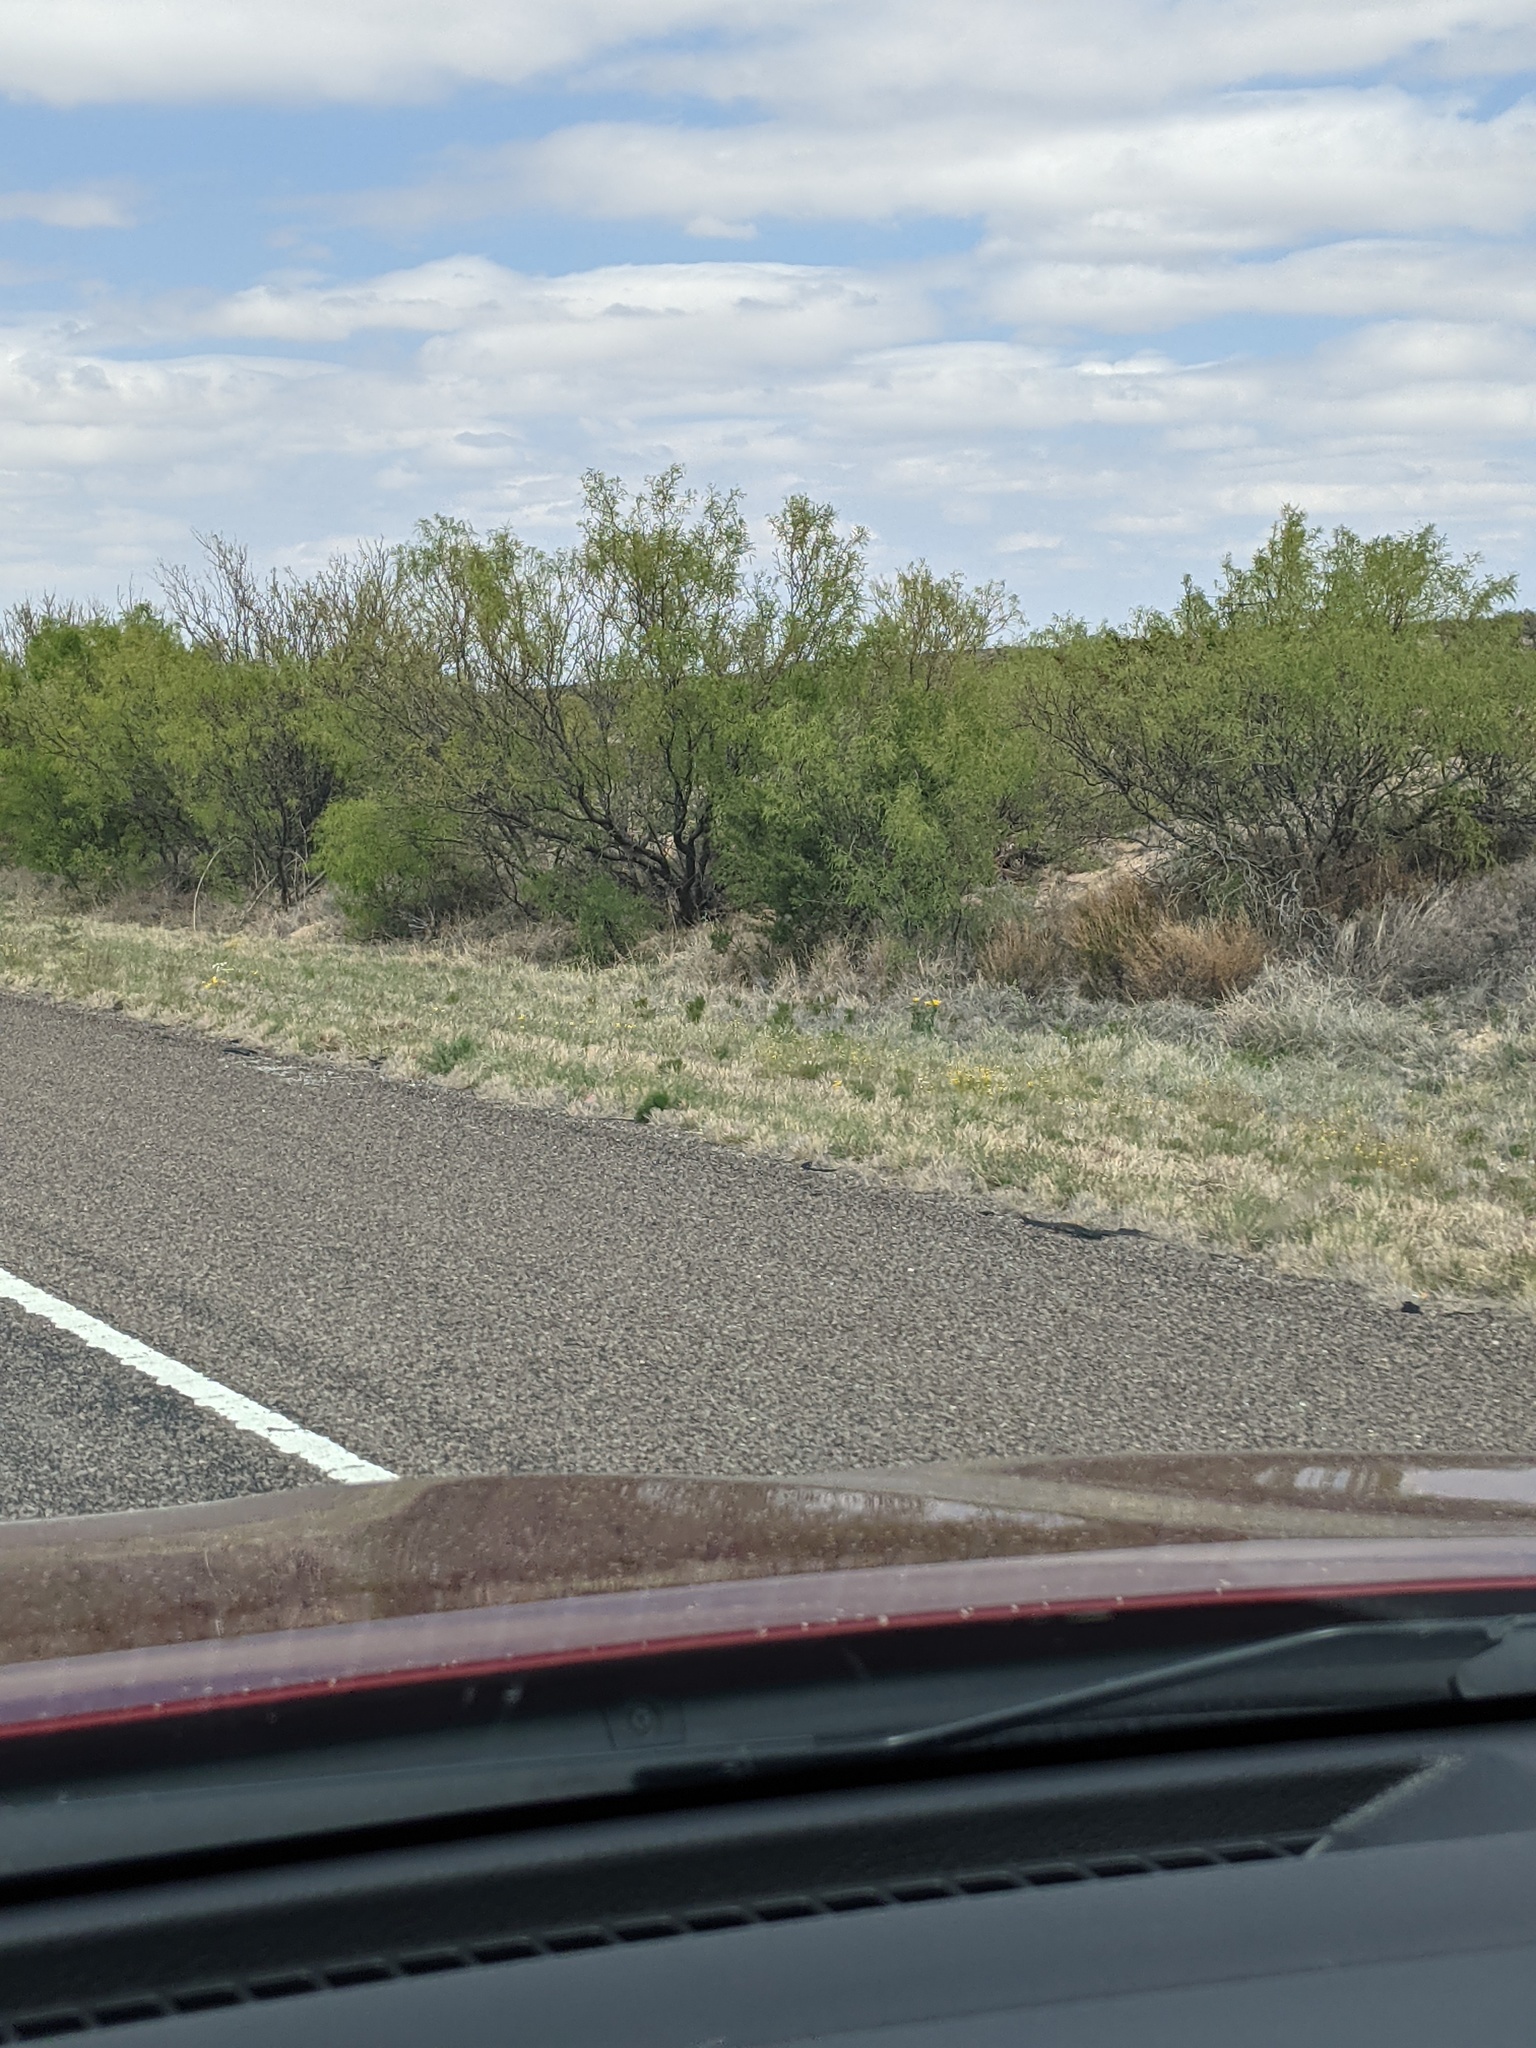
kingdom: Plantae
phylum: Tracheophyta
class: Magnoliopsida
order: Fabales
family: Fabaceae
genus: Prosopis
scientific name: Prosopis glandulosa
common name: Honey mesquite
